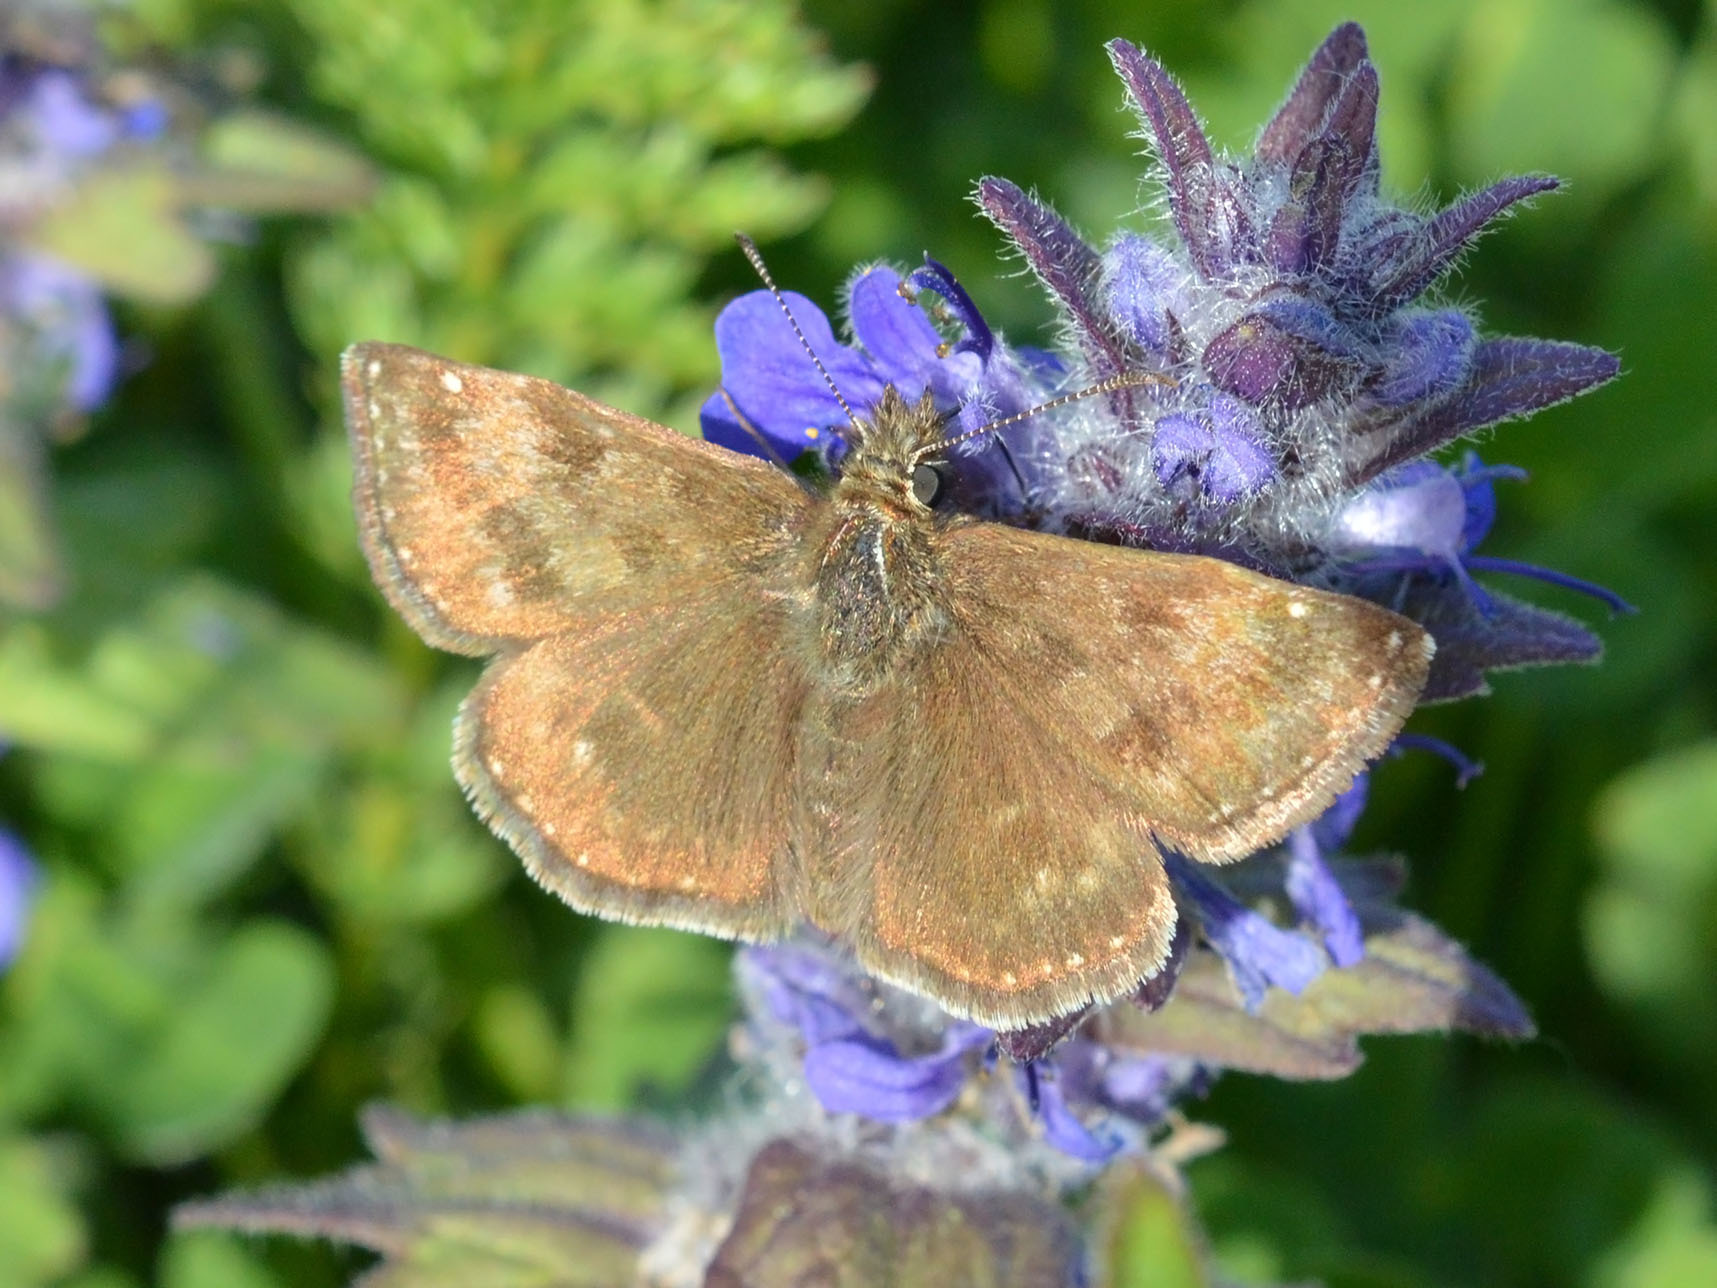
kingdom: Animalia
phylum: Arthropoda
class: Insecta
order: Lepidoptera
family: Hesperiidae
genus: Erynnis
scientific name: Erynnis tages
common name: Dingy skipper
